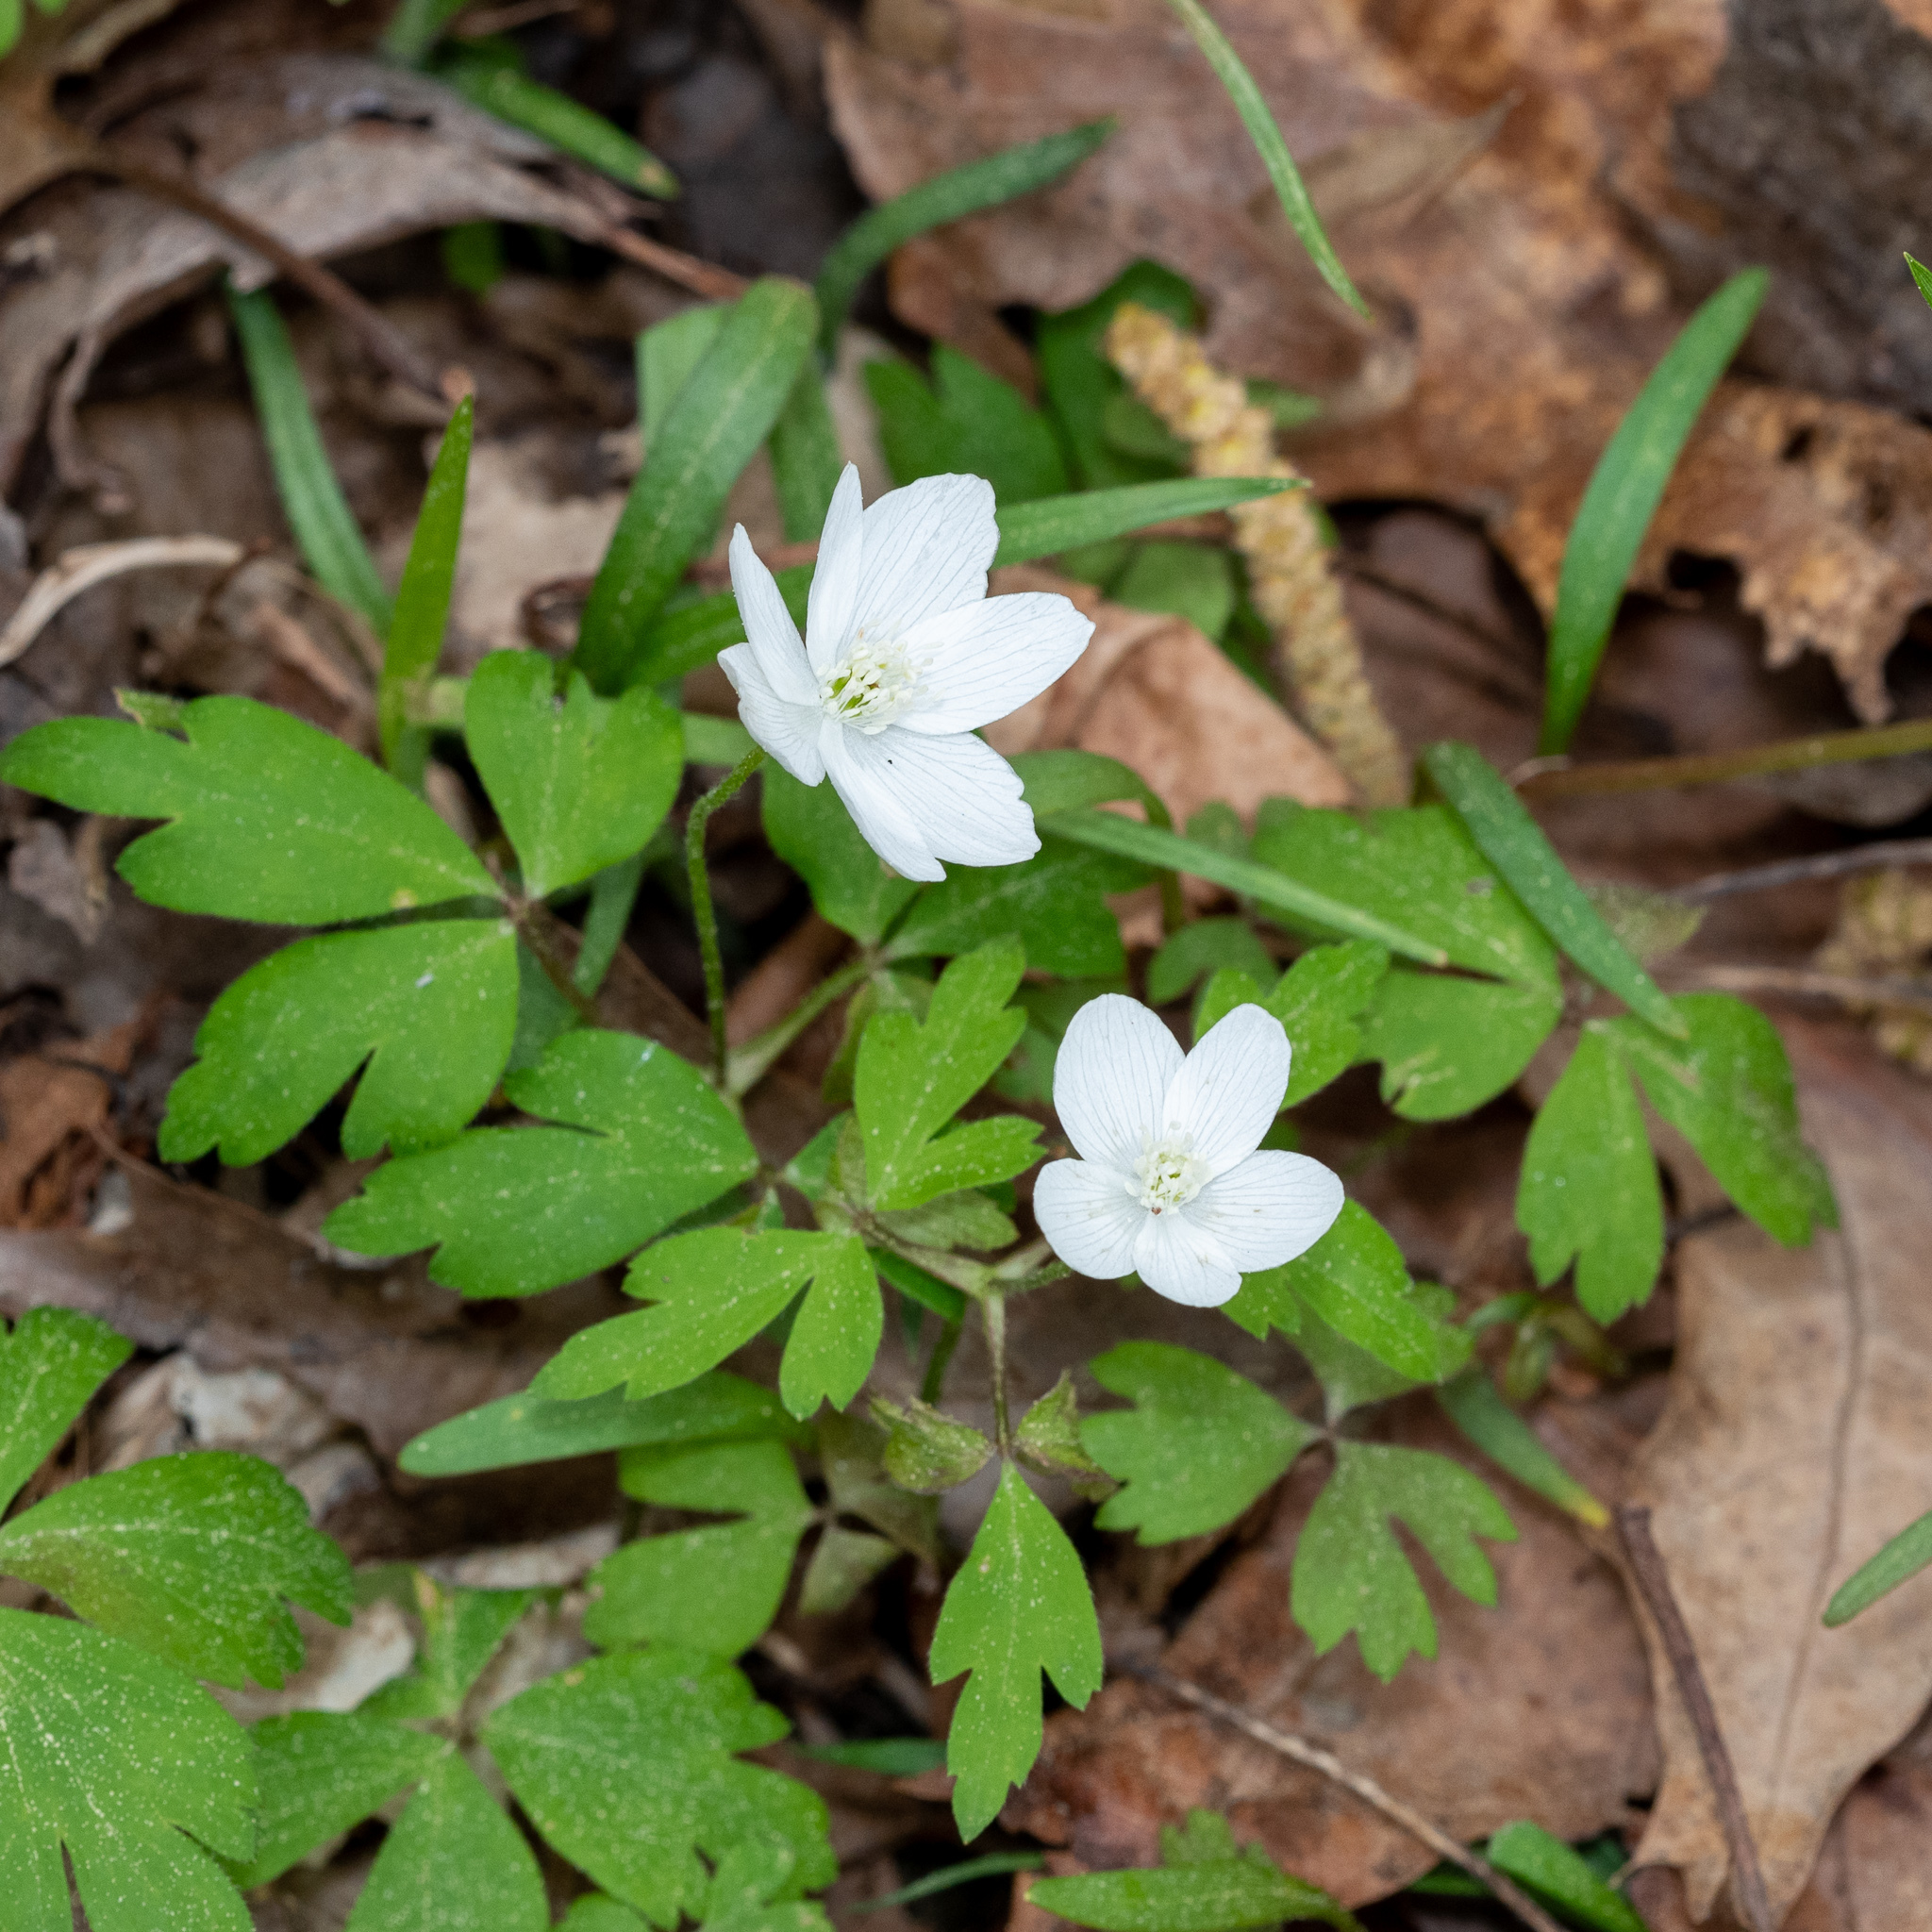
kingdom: Plantae
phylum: Tracheophyta
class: Magnoliopsida
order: Ranunculales
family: Ranunculaceae
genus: Anemone
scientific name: Anemone quinquefolia
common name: Wood anemone
